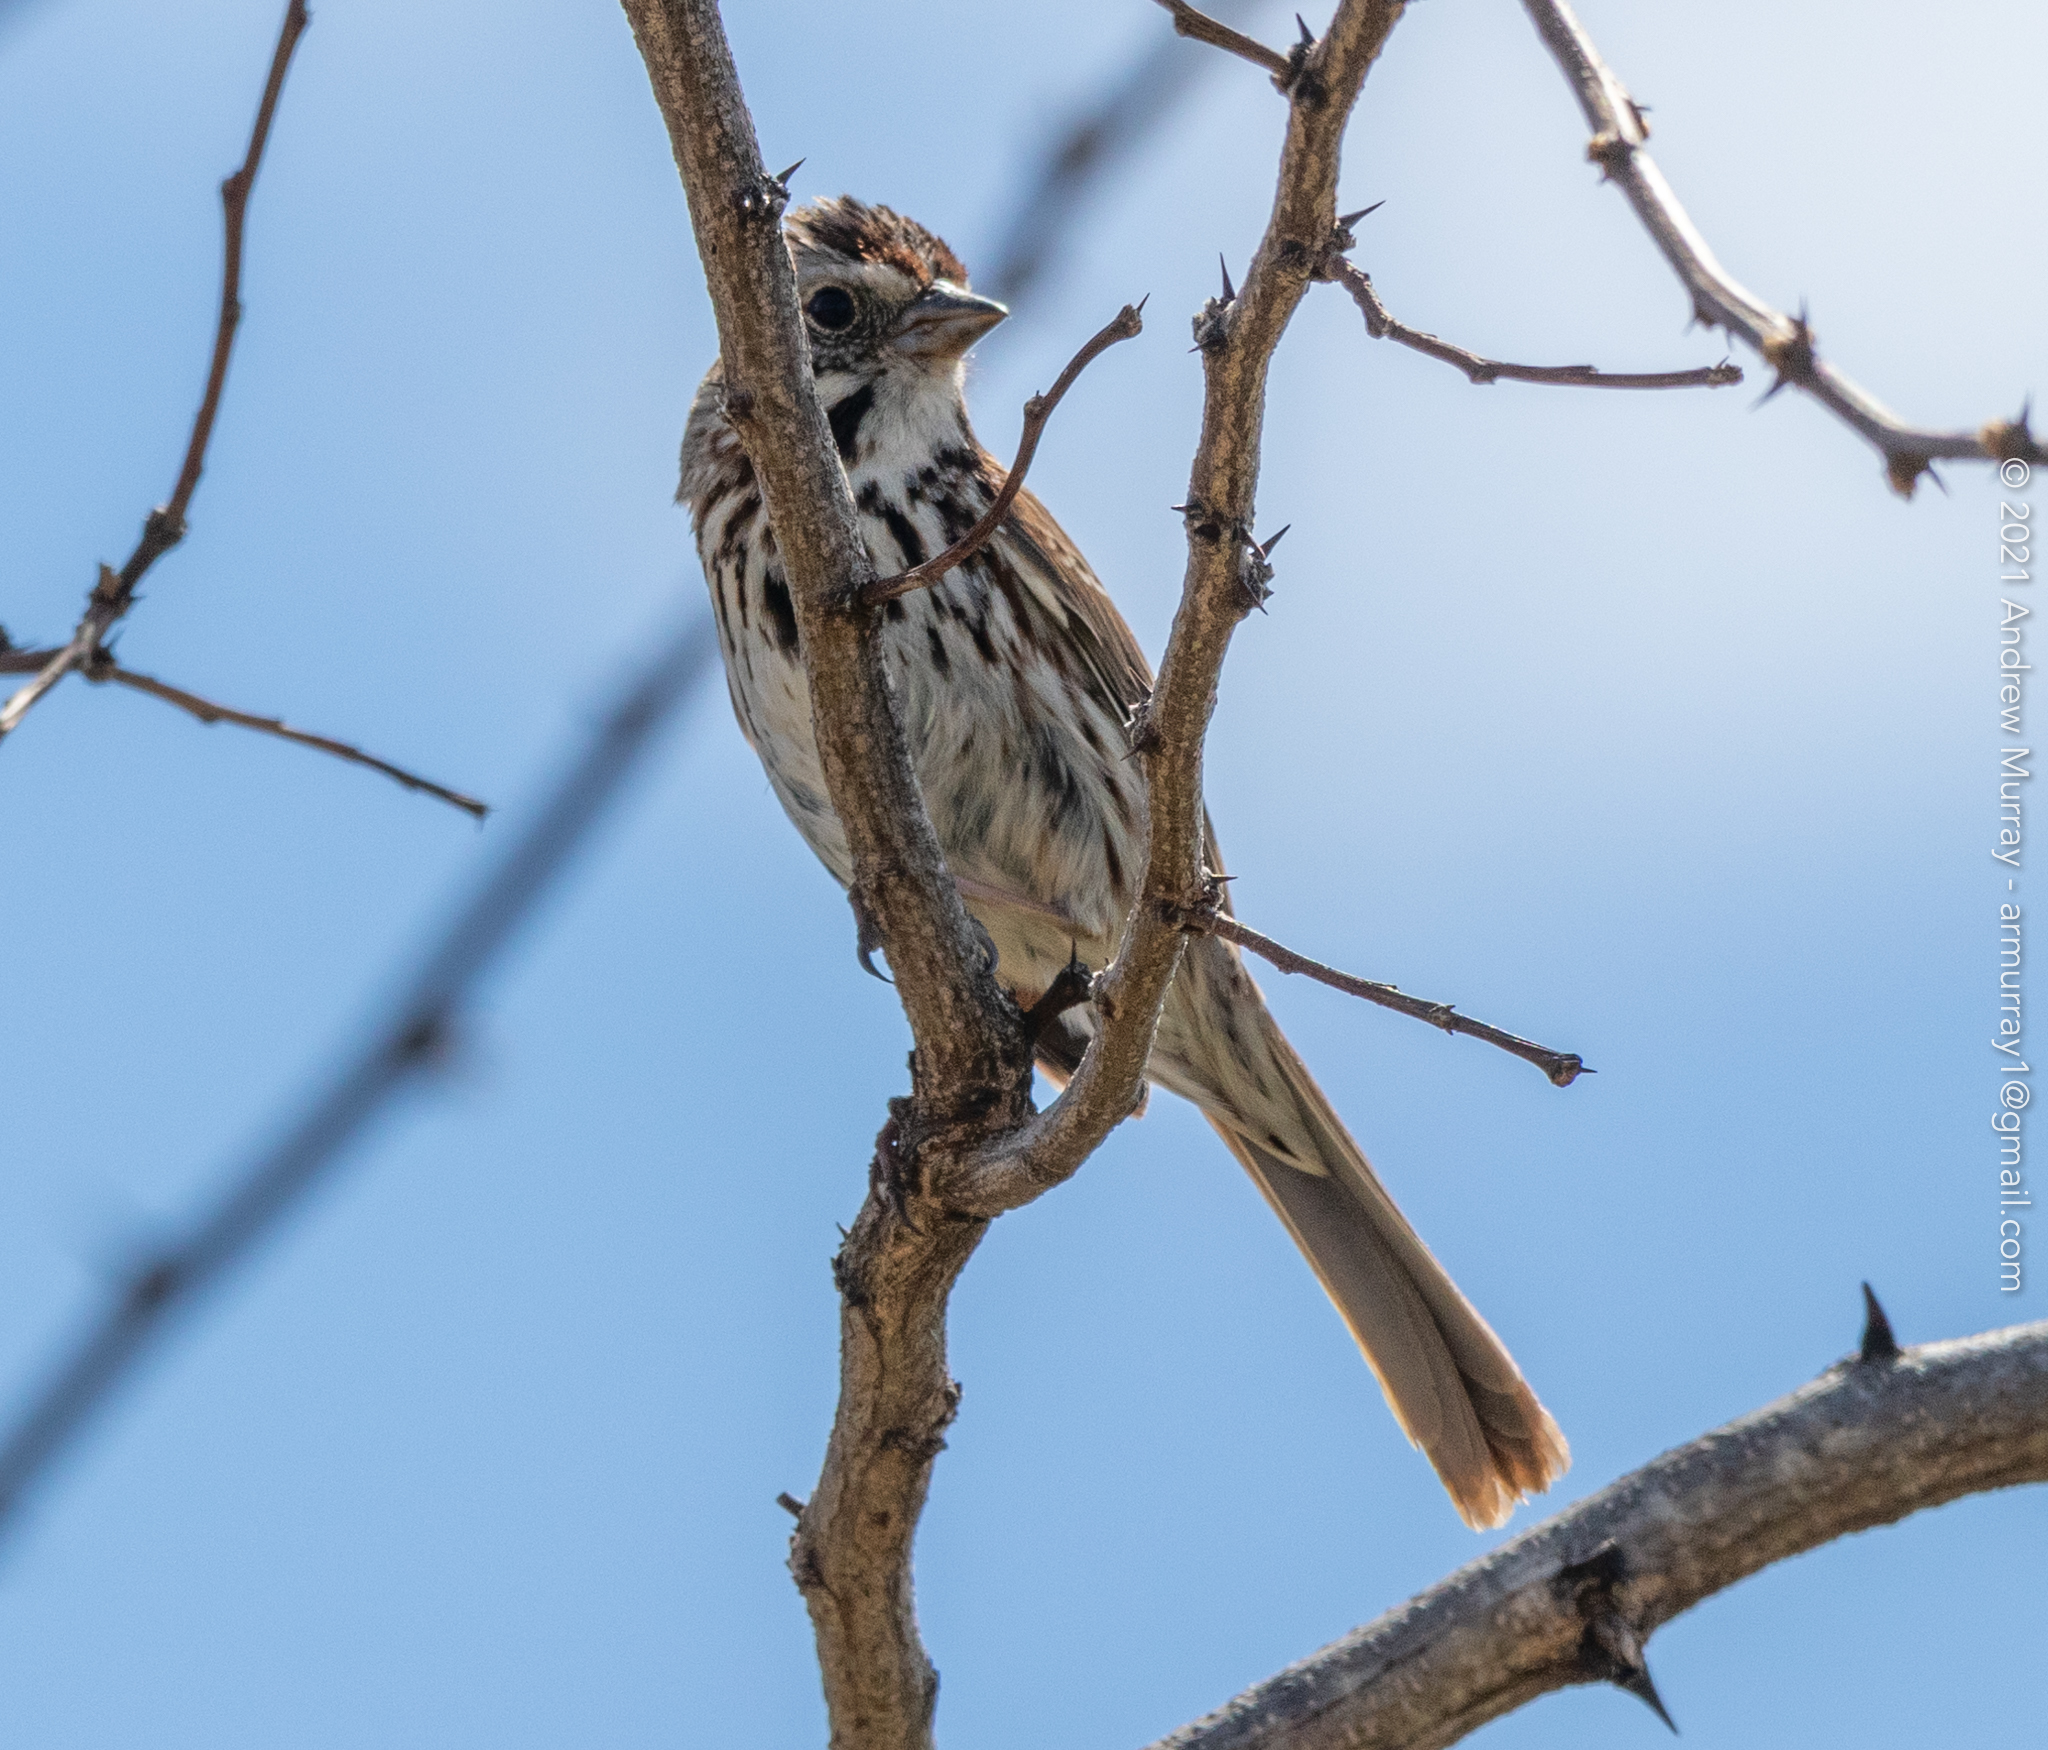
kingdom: Animalia
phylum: Chordata
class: Aves
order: Passeriformes
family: Passerellidae
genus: Melospiza
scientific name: Melospiza melodia
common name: Song sparrow
